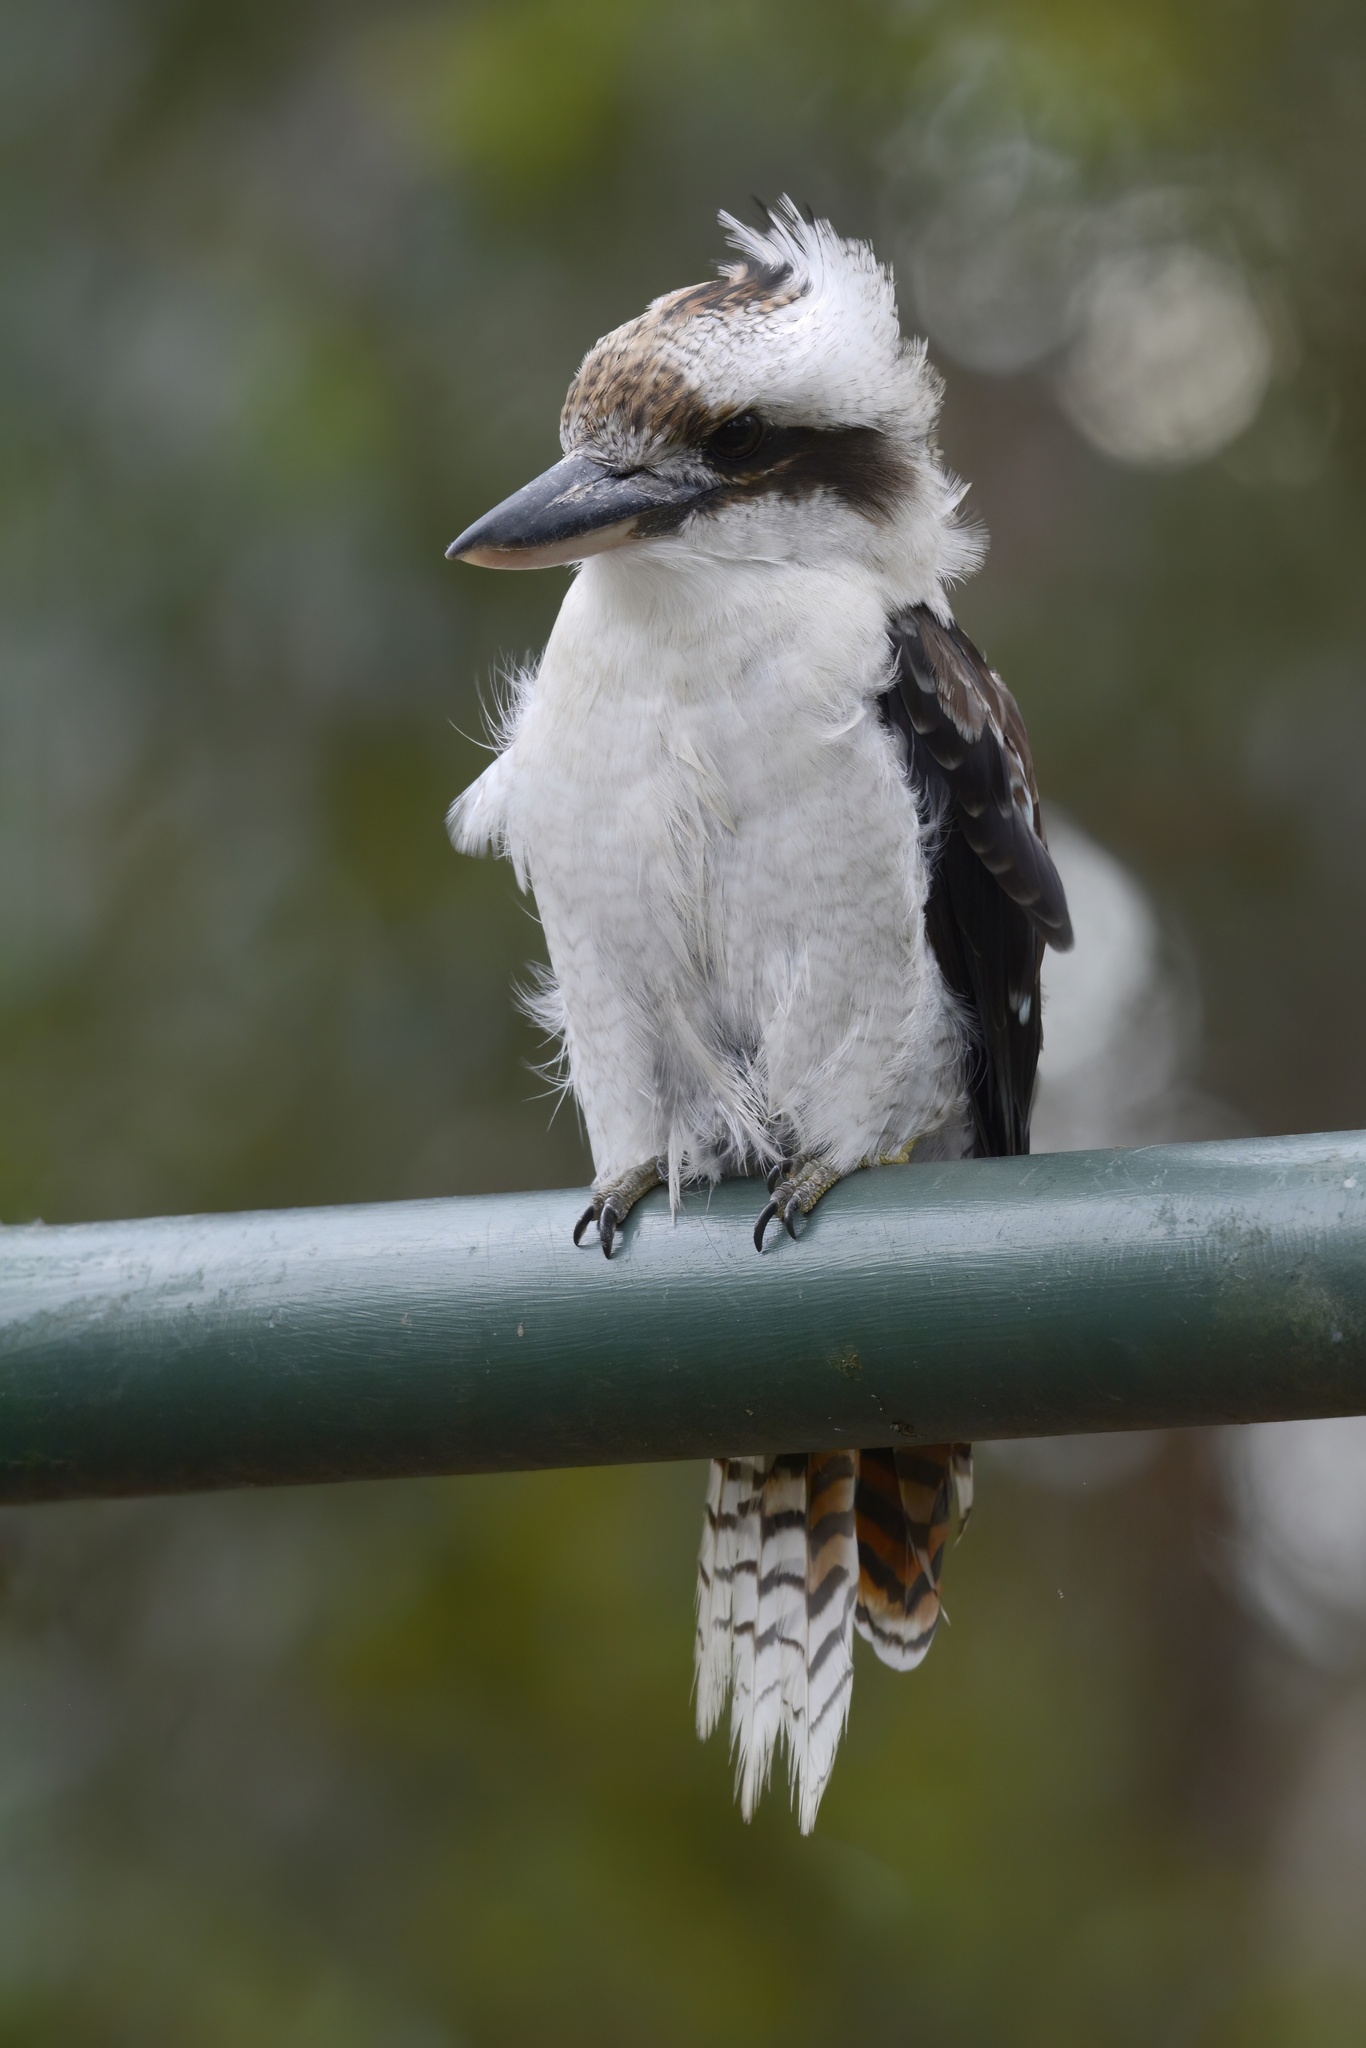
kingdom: Animalia
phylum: Chordata
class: Aves
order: Coraciiformes
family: Alcedinidae
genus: Dacelo
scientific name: Dacelo novaeguineae
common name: Laughing kookaburra
